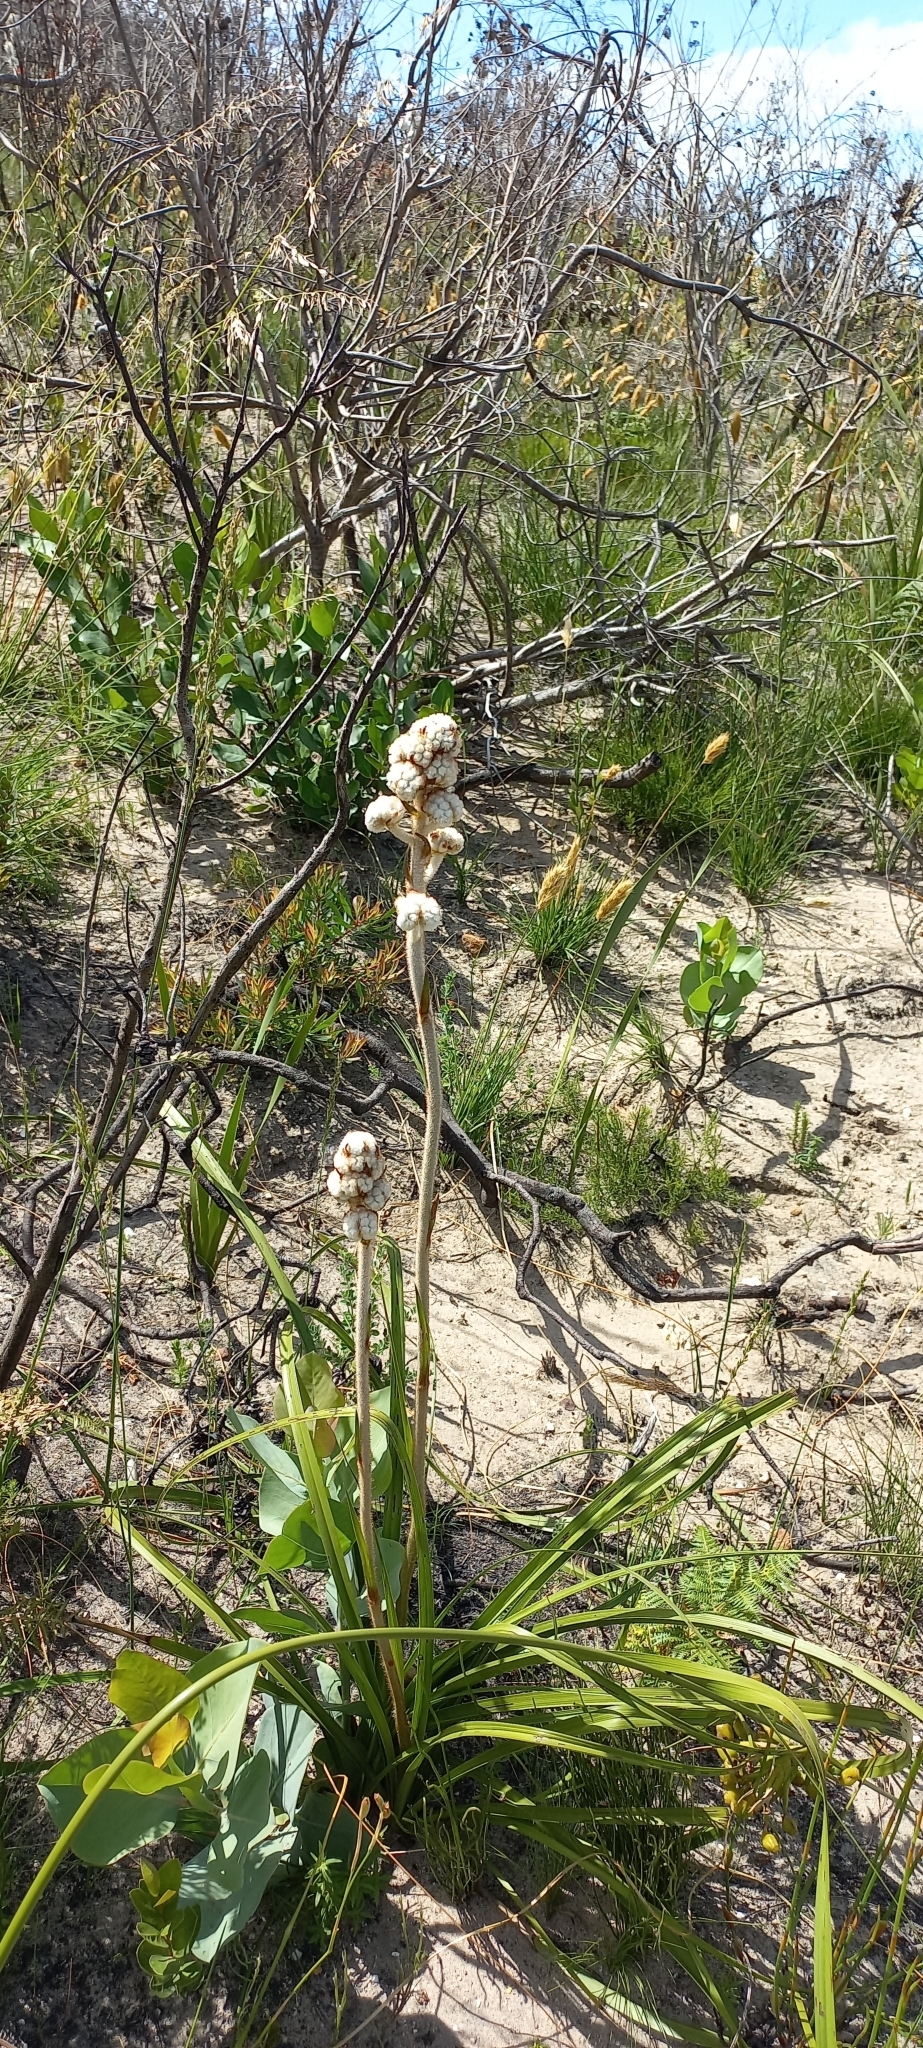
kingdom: Plantae
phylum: Tracheophyta
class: Liliopsida
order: Asparagales
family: Lanariaceae
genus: Lanaria
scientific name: Lanaria lanata
